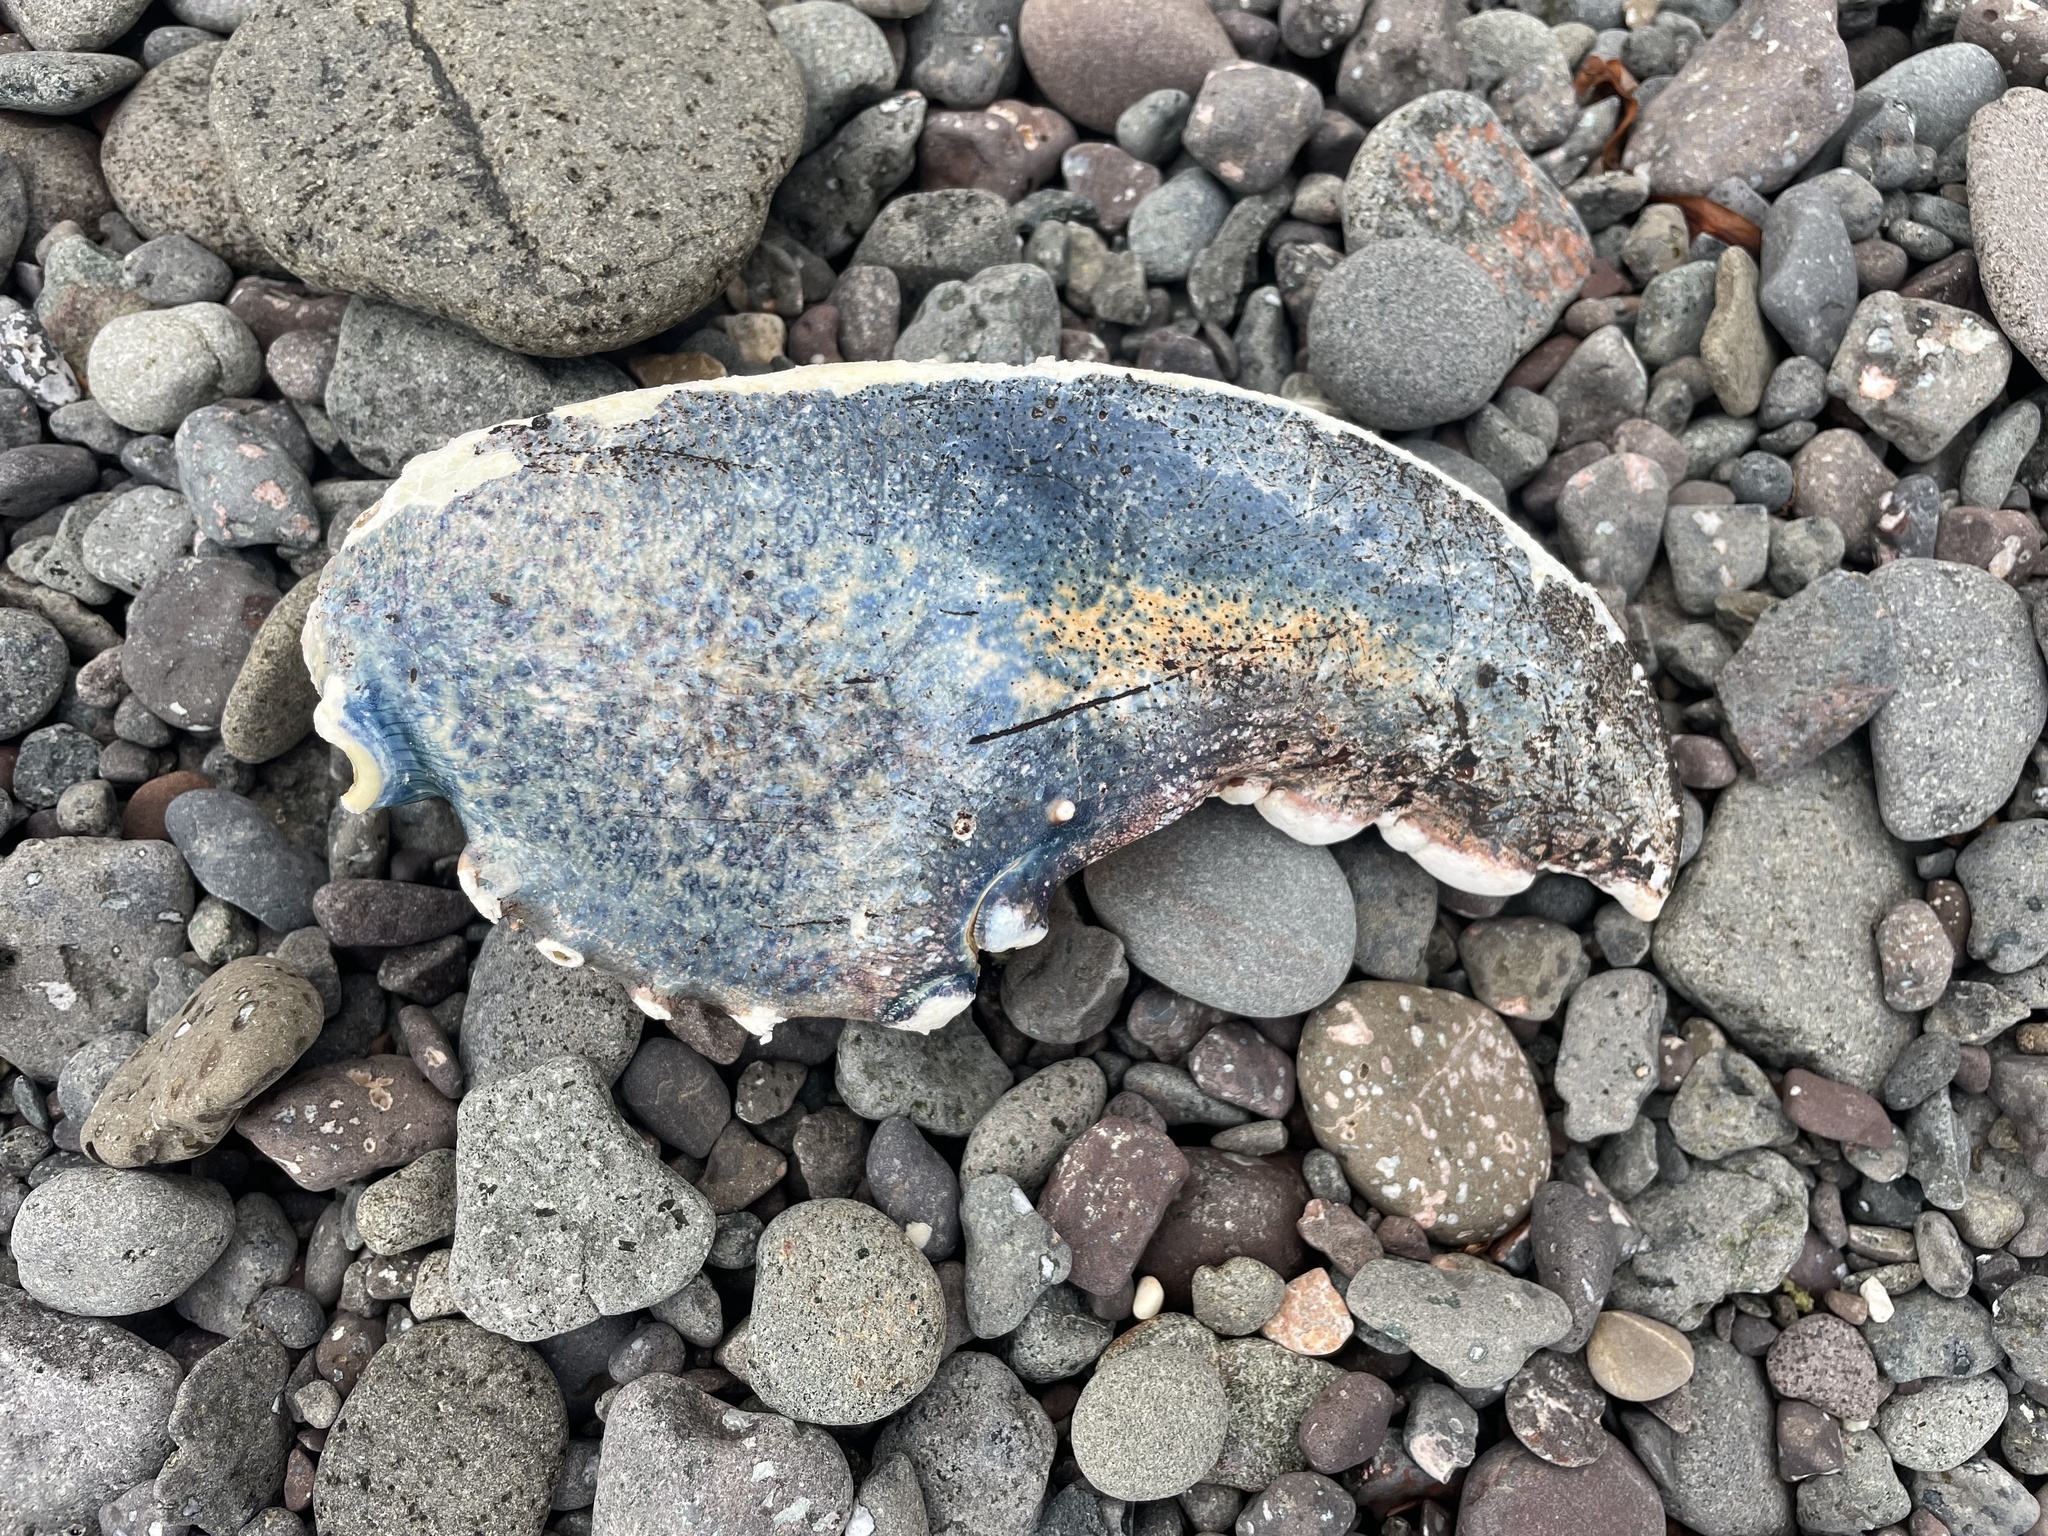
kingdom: Animalia
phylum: Arthropoda
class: Malacostraca
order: Decapoda
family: Nephropidae
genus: Homarus
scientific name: Homarus americanus
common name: American lobster
